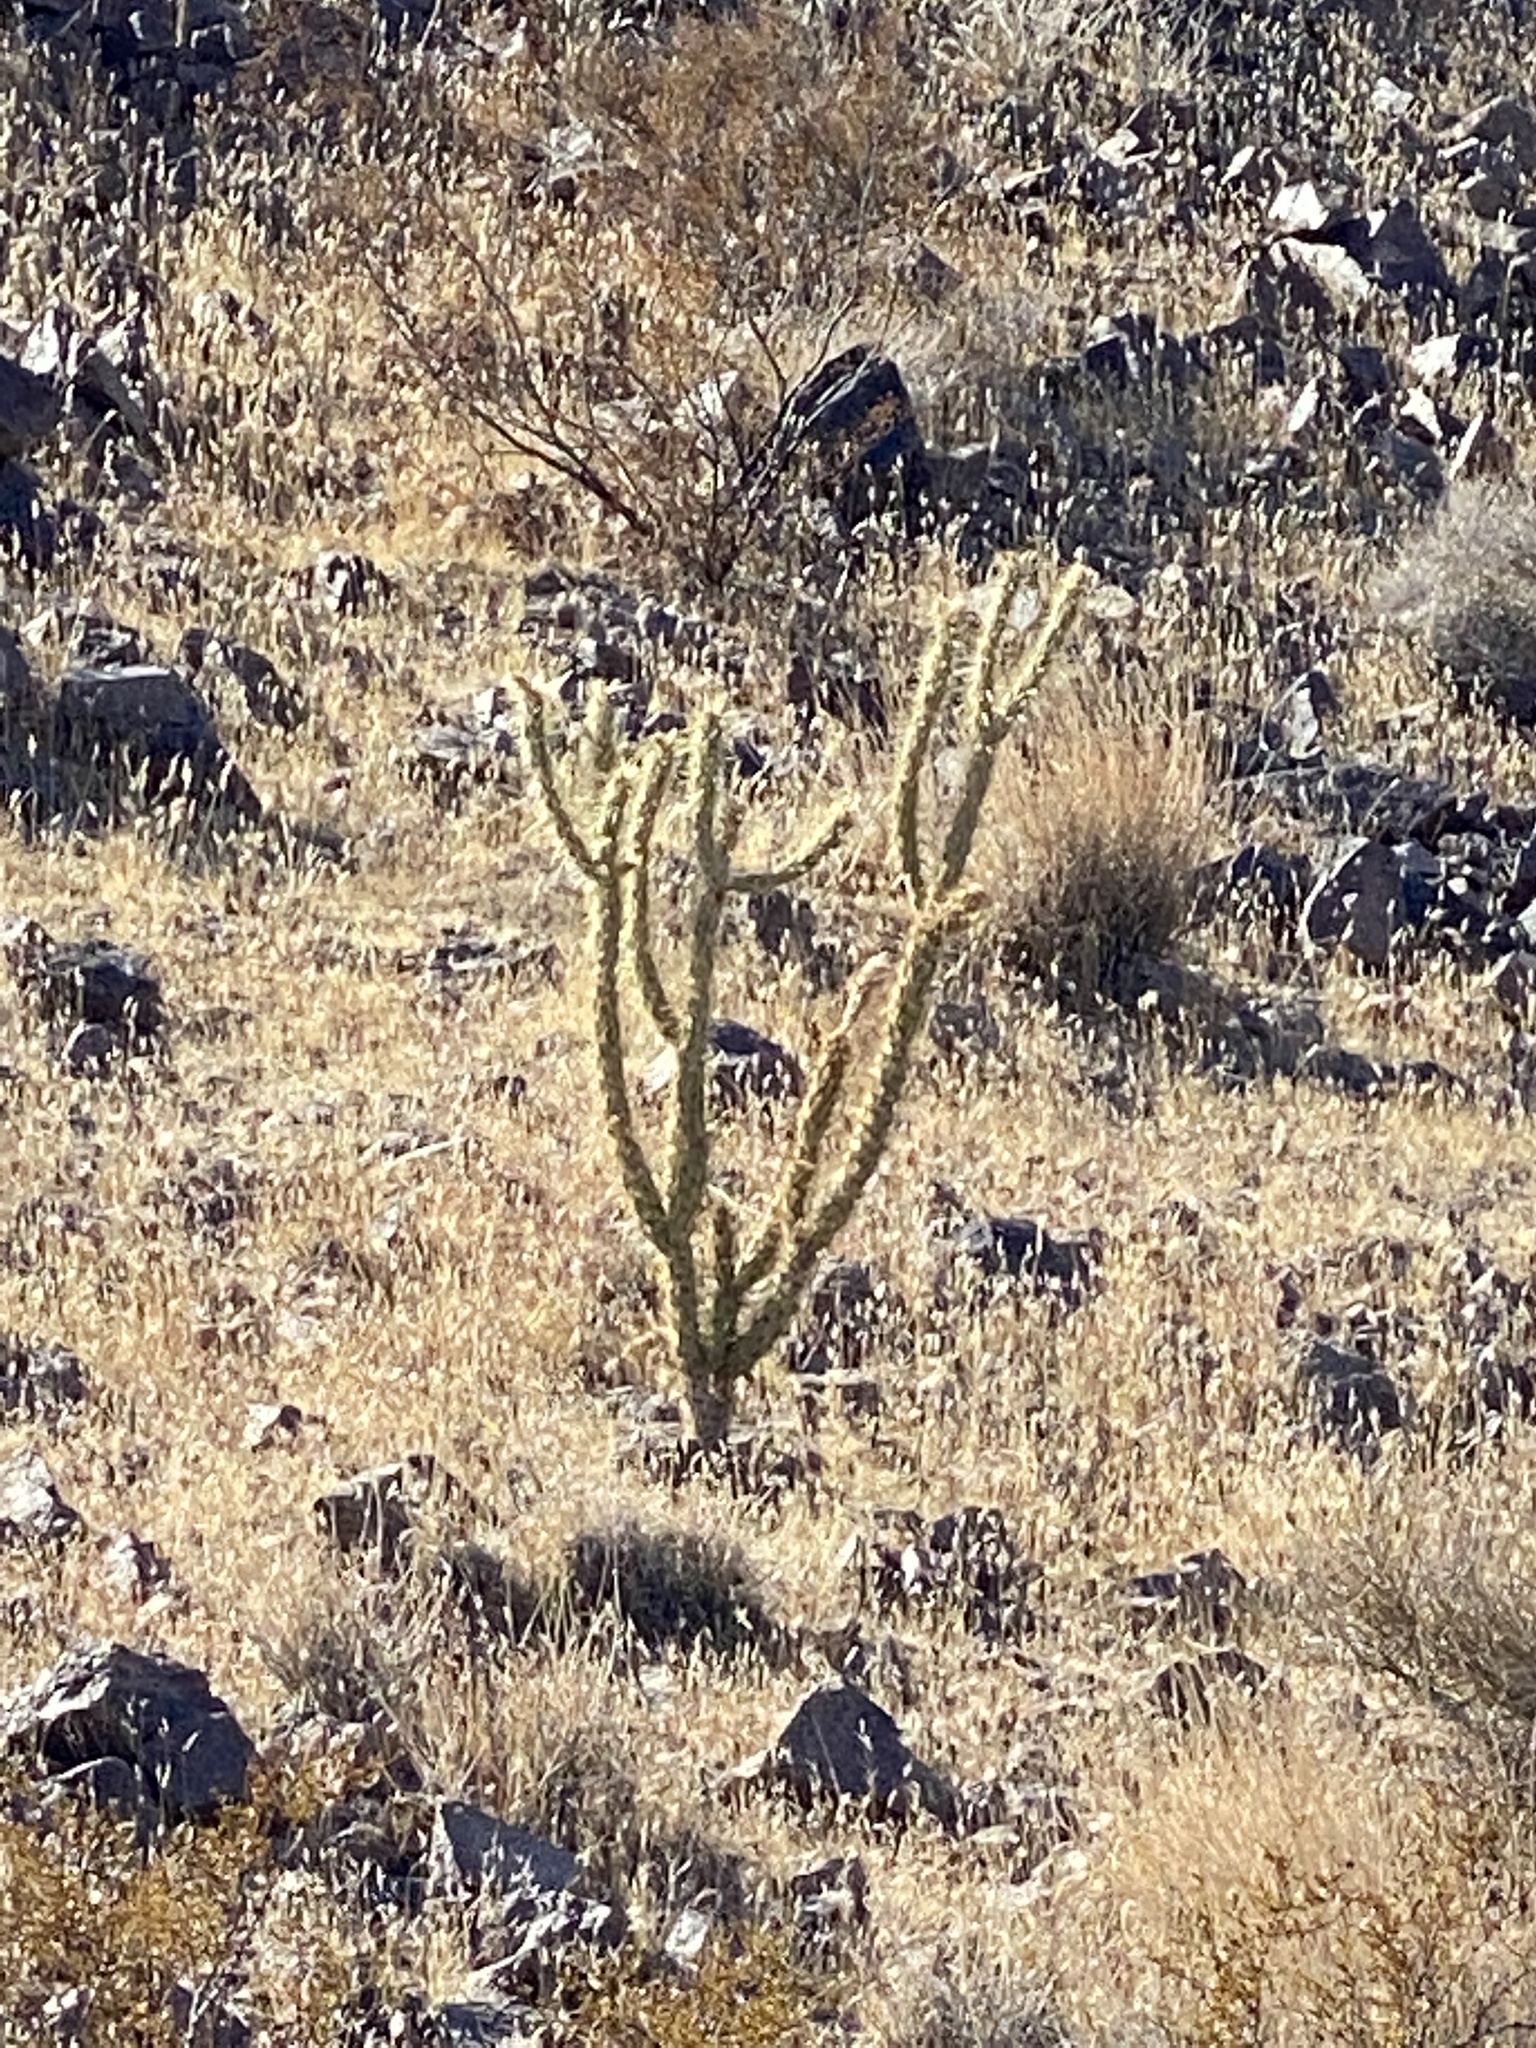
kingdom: Plantae
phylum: Tracheophyta
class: Magnoliopsida
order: Caryophyllales
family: Cactaceae
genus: Cylindropuntia
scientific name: Cylindropuntia acanthocarpa
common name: Buckhorn cholla
